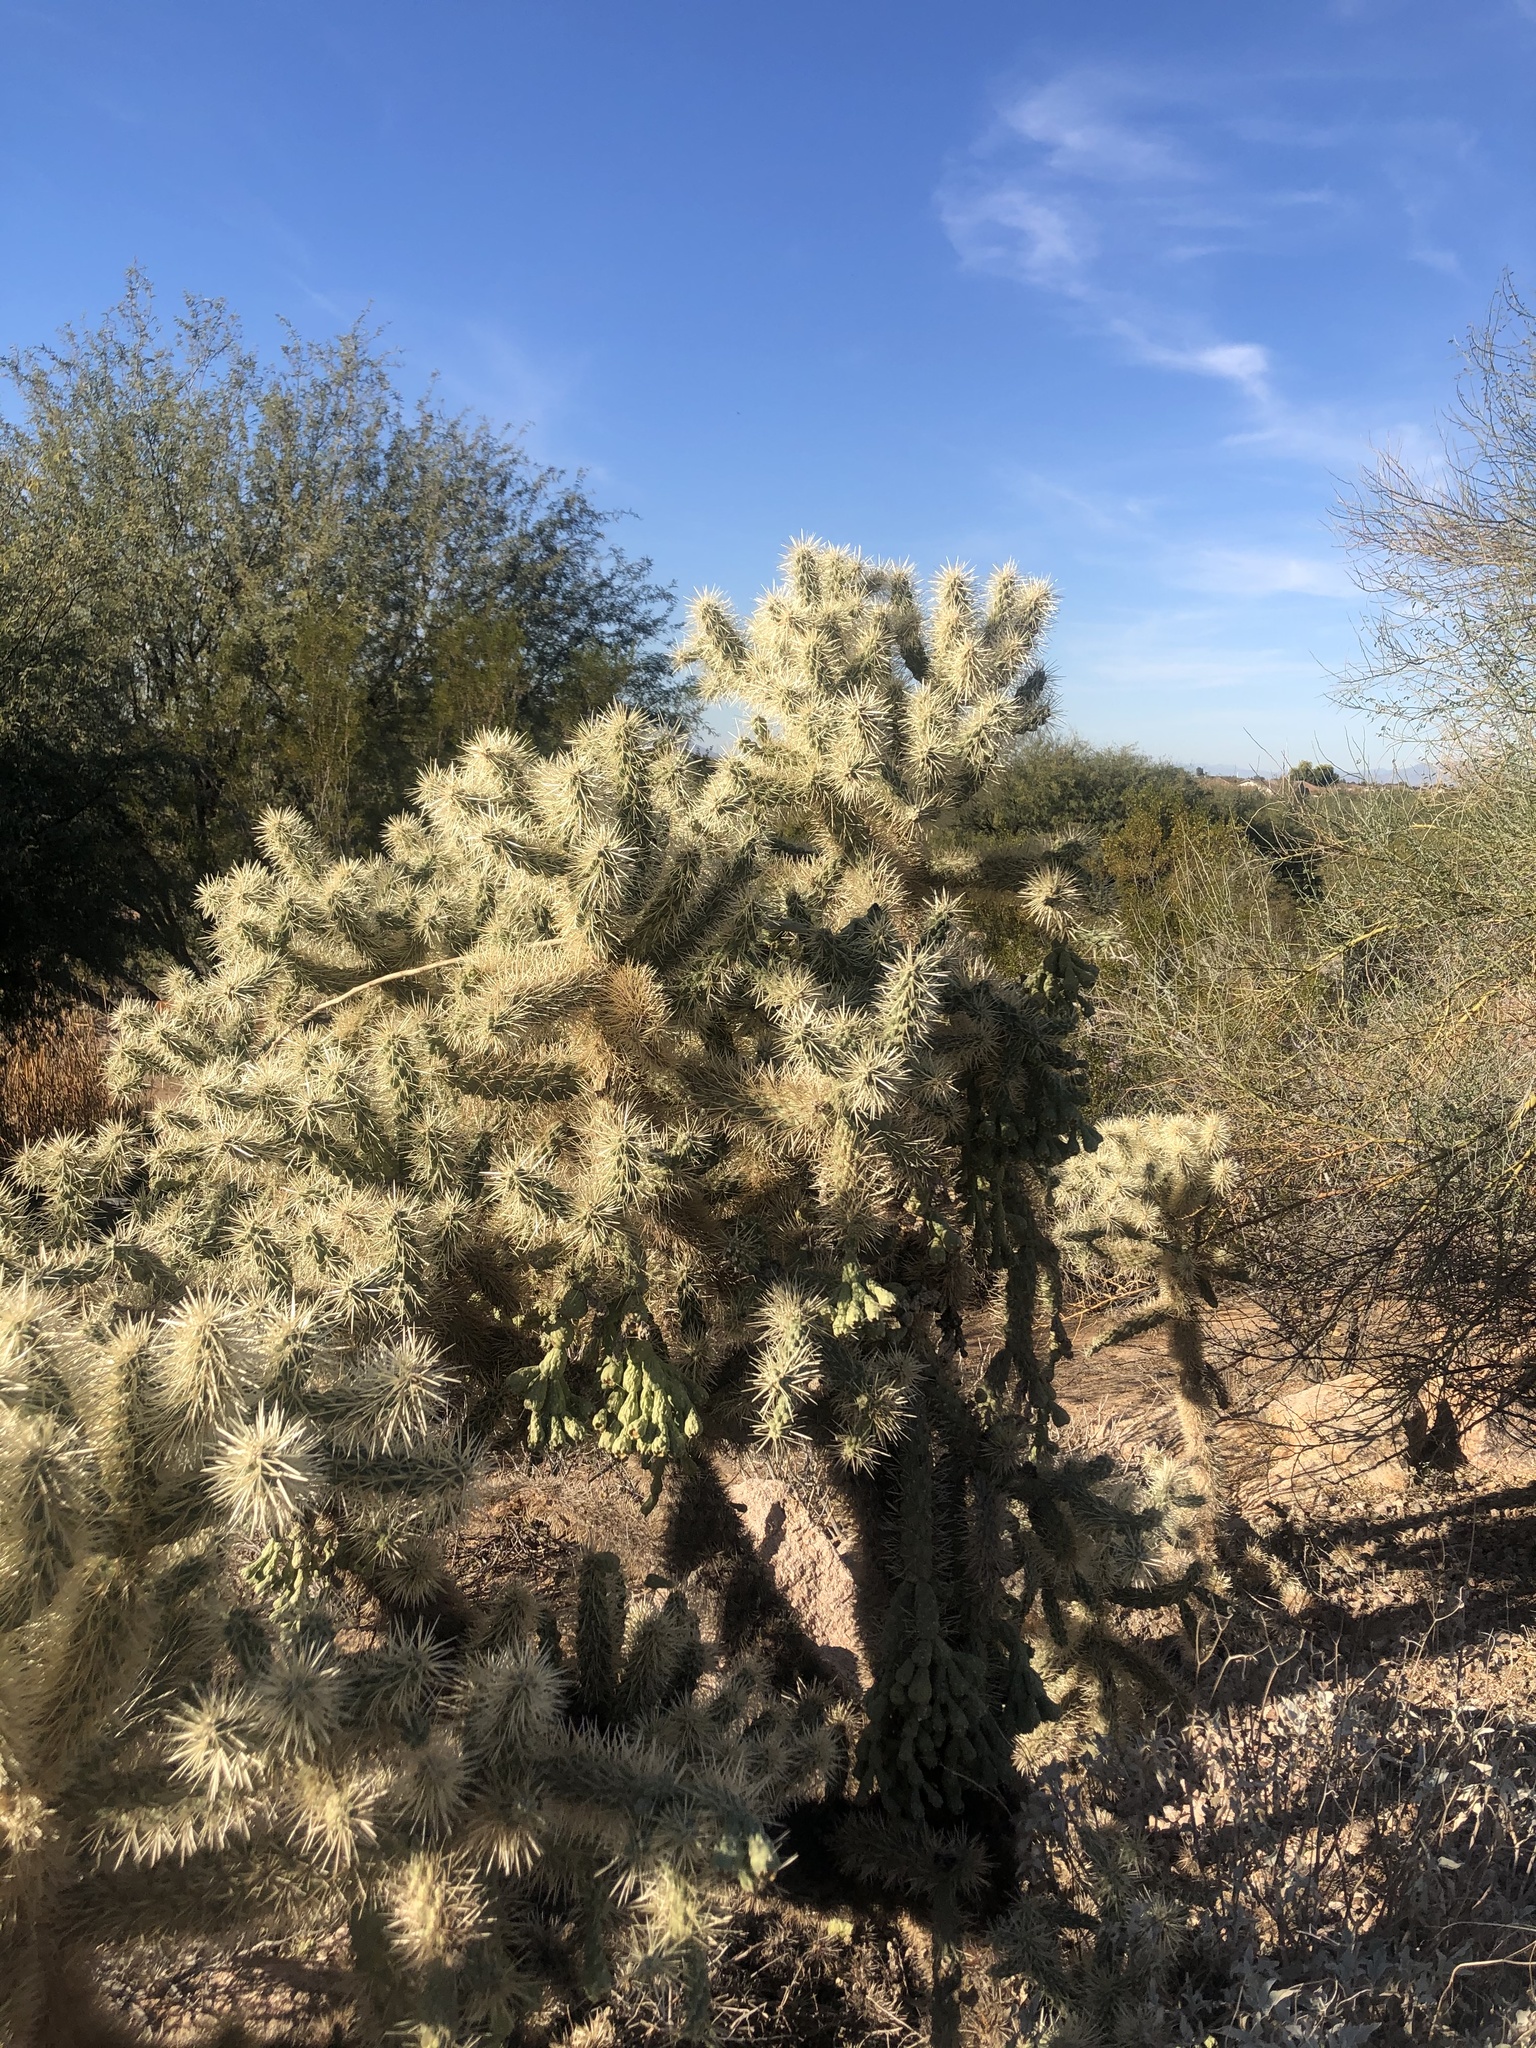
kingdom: Plantae
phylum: Tracheophyta
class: Magnoliopsida
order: Caryophyllales
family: Cactaceae
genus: Cylindropuntia
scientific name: Cylindropuntia fulgida
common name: Jumping cholla
